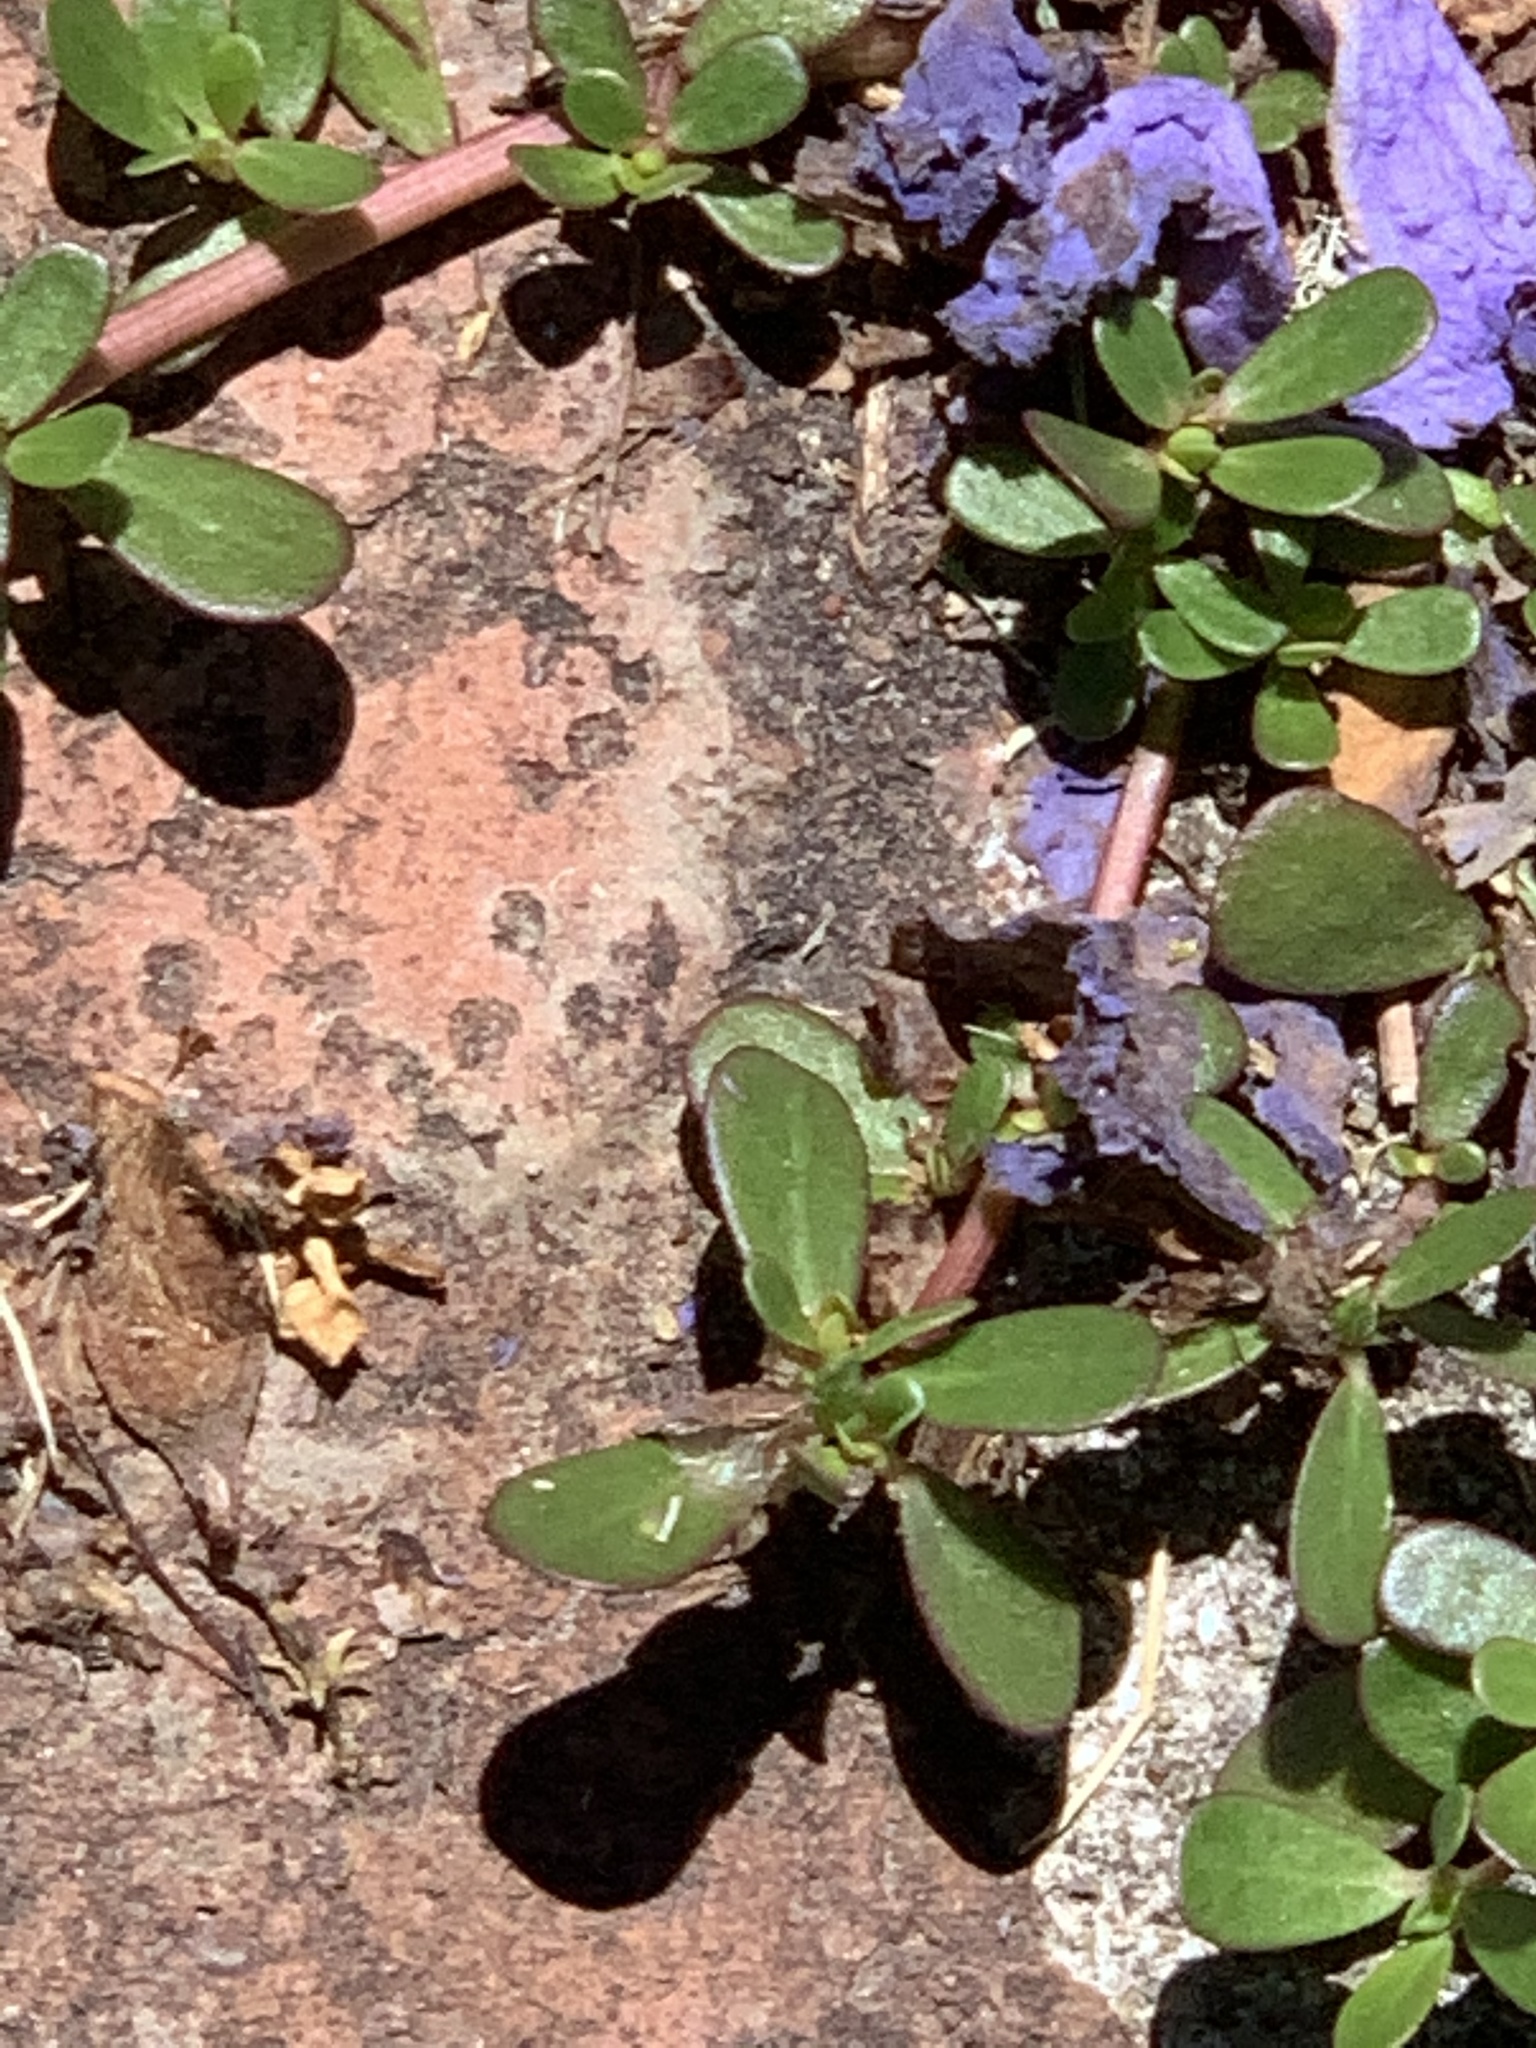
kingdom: Plantae
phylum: Tracheophyta
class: Magnoliopsida
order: Caryophyllales
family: Portulacaceae
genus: Portulaca
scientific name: Portulaca oleracea
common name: Common purslane
